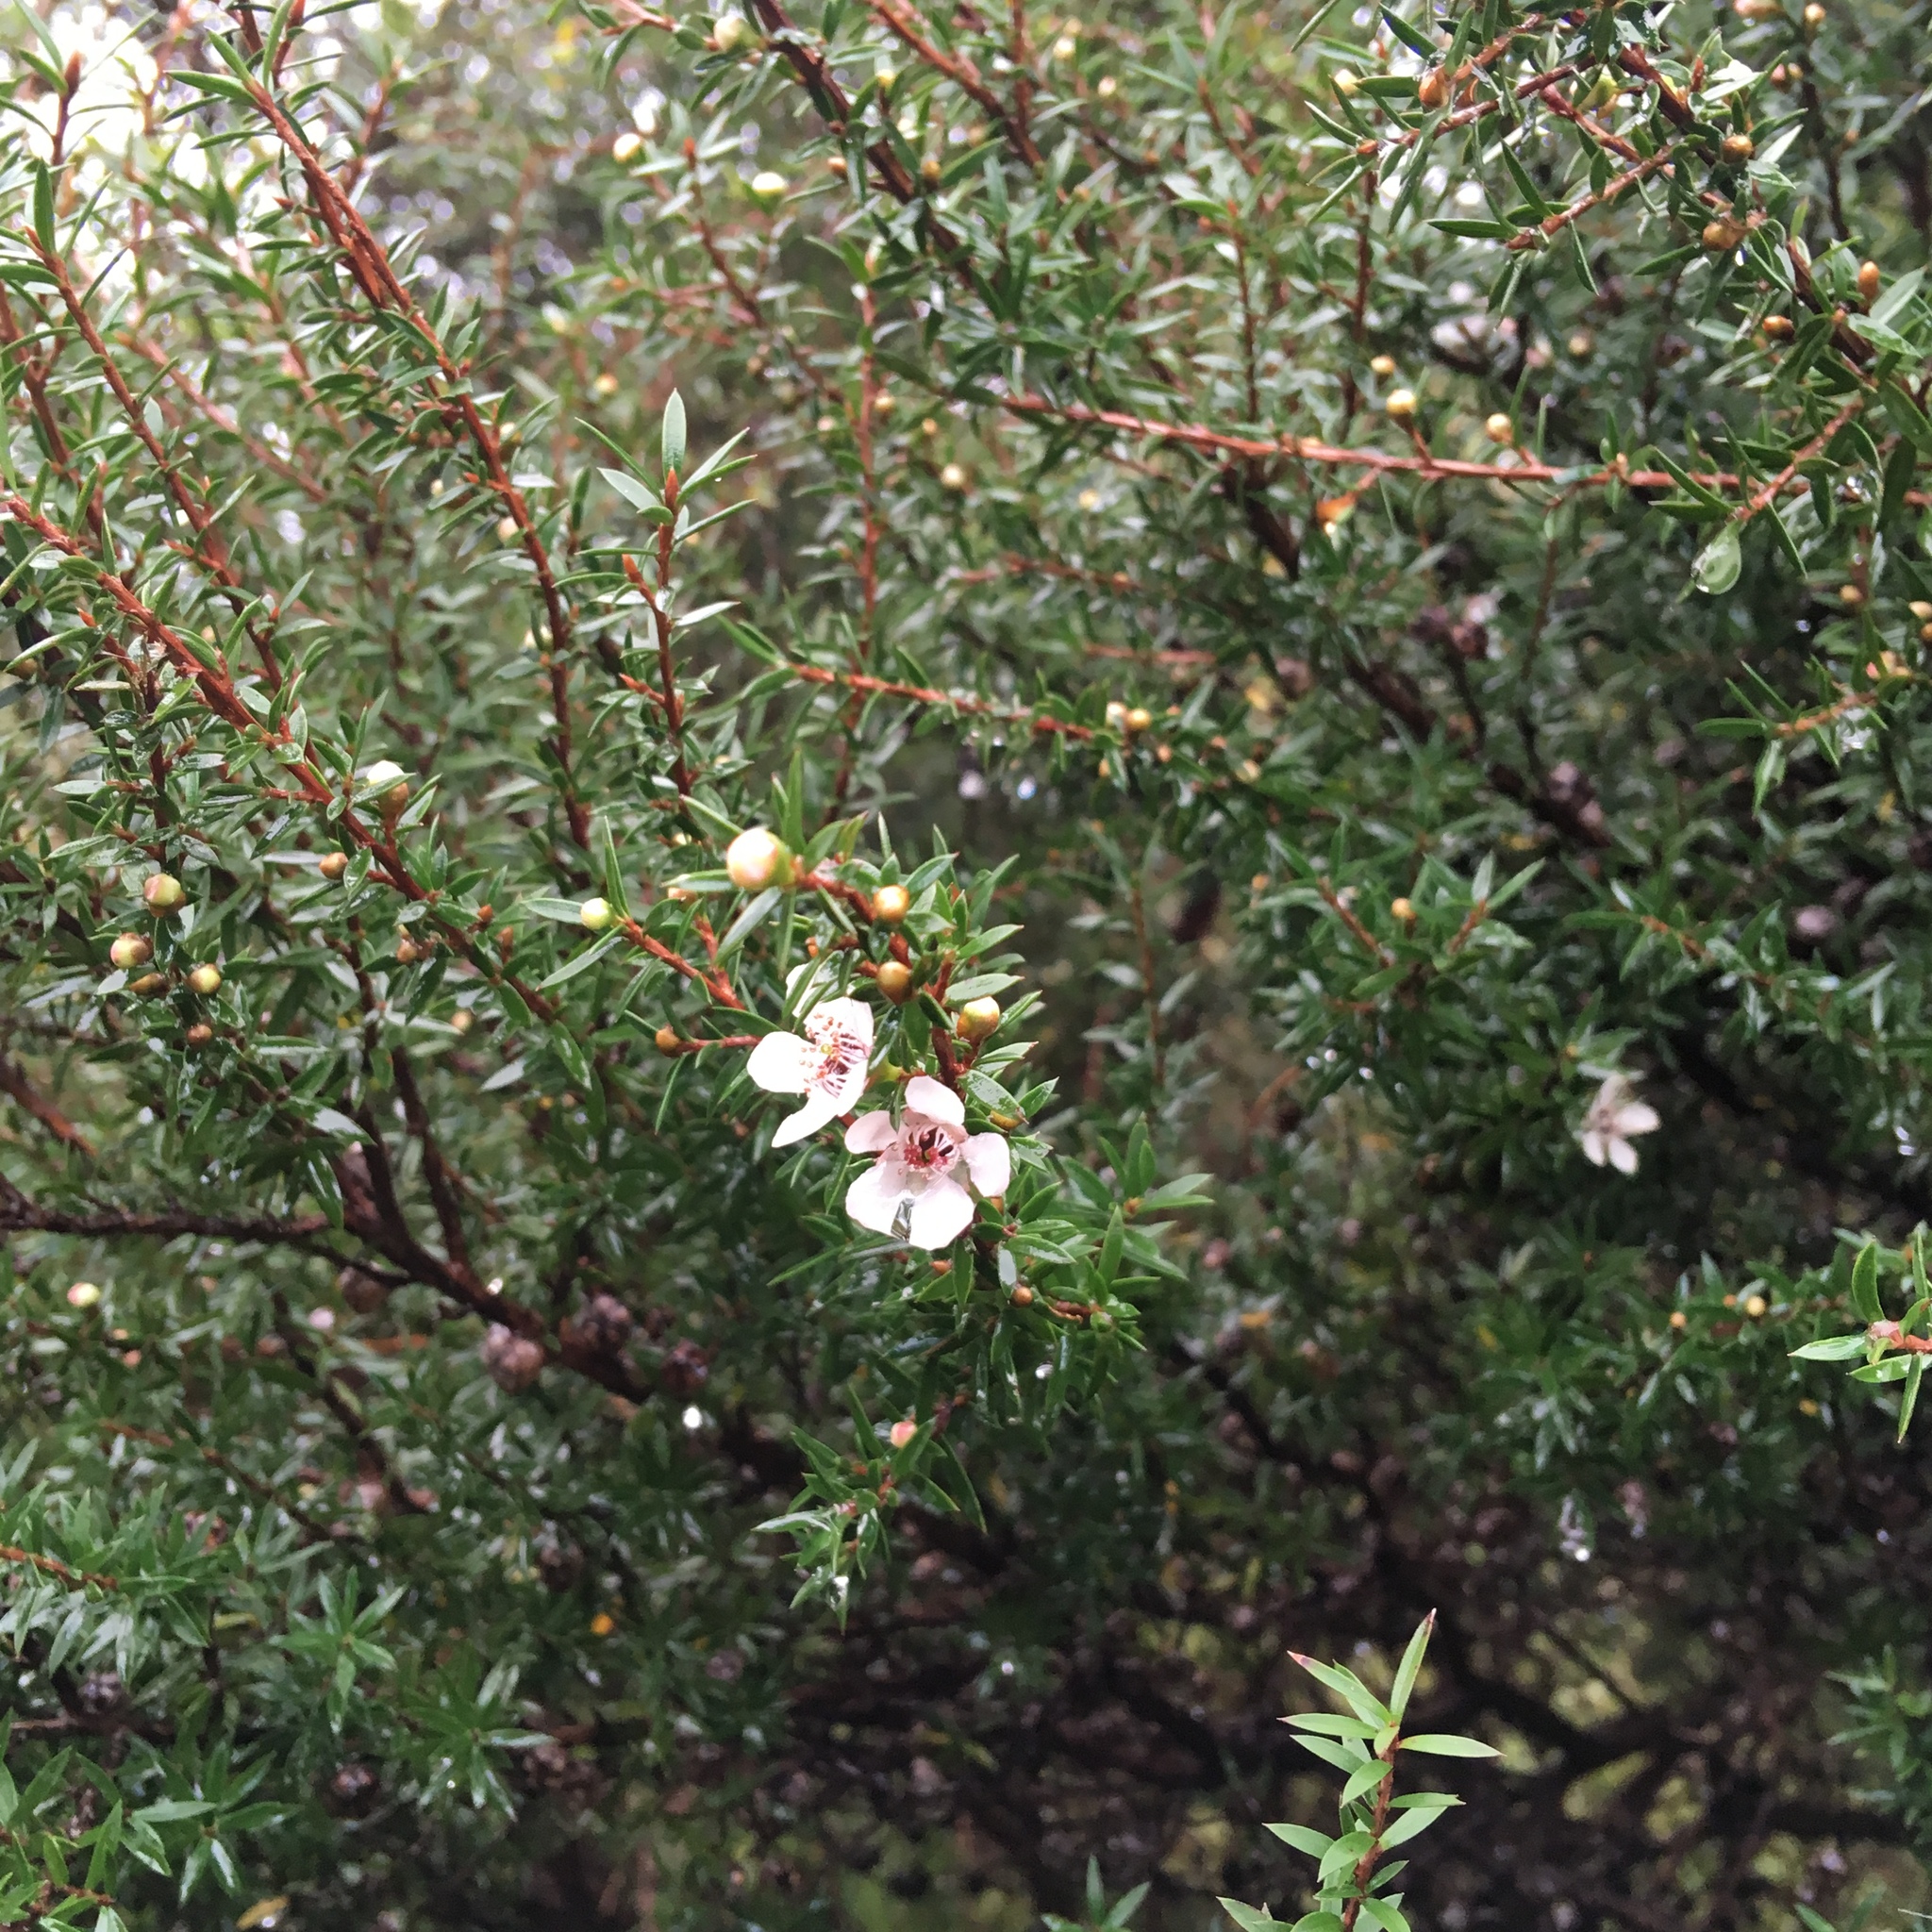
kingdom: Plantae
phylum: Tracheophyta
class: Magnoliopsida
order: Myrtales
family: Myrtaceae
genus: Leptospermum
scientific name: Leptospermum scoparium
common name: Broom tea-tree
